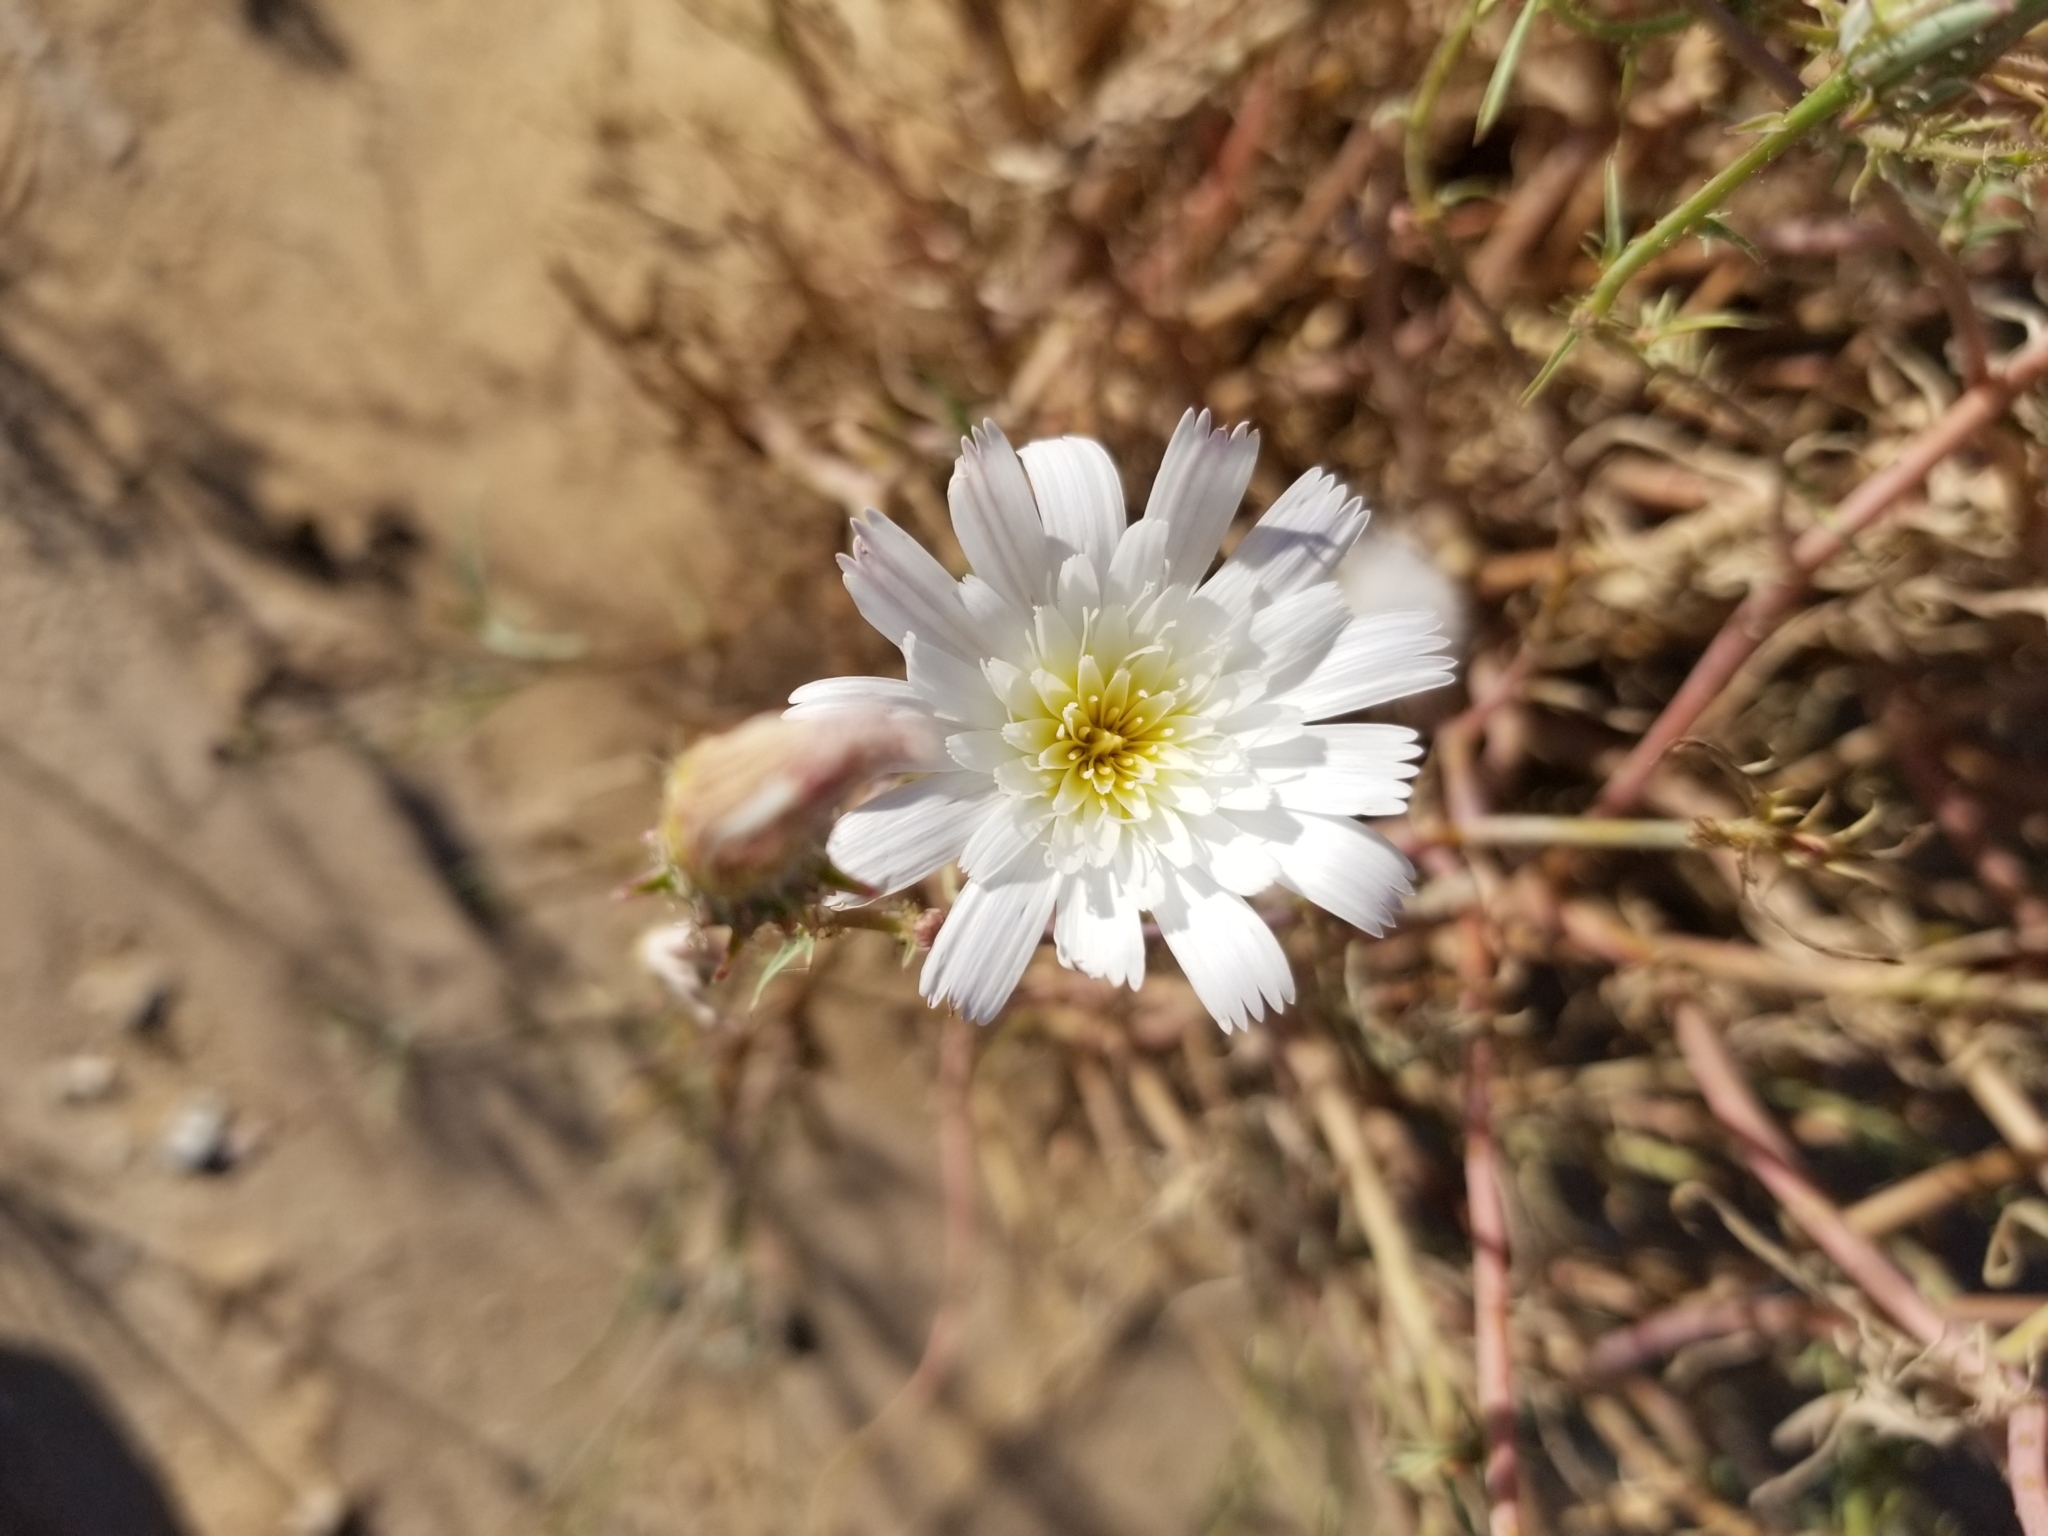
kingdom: Plantae
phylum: Tracheophyta
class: Magnoliopsida
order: Asterales
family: Asteraceae
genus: Calycoseris
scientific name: Calycoseris wrightii
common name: White tackstem
